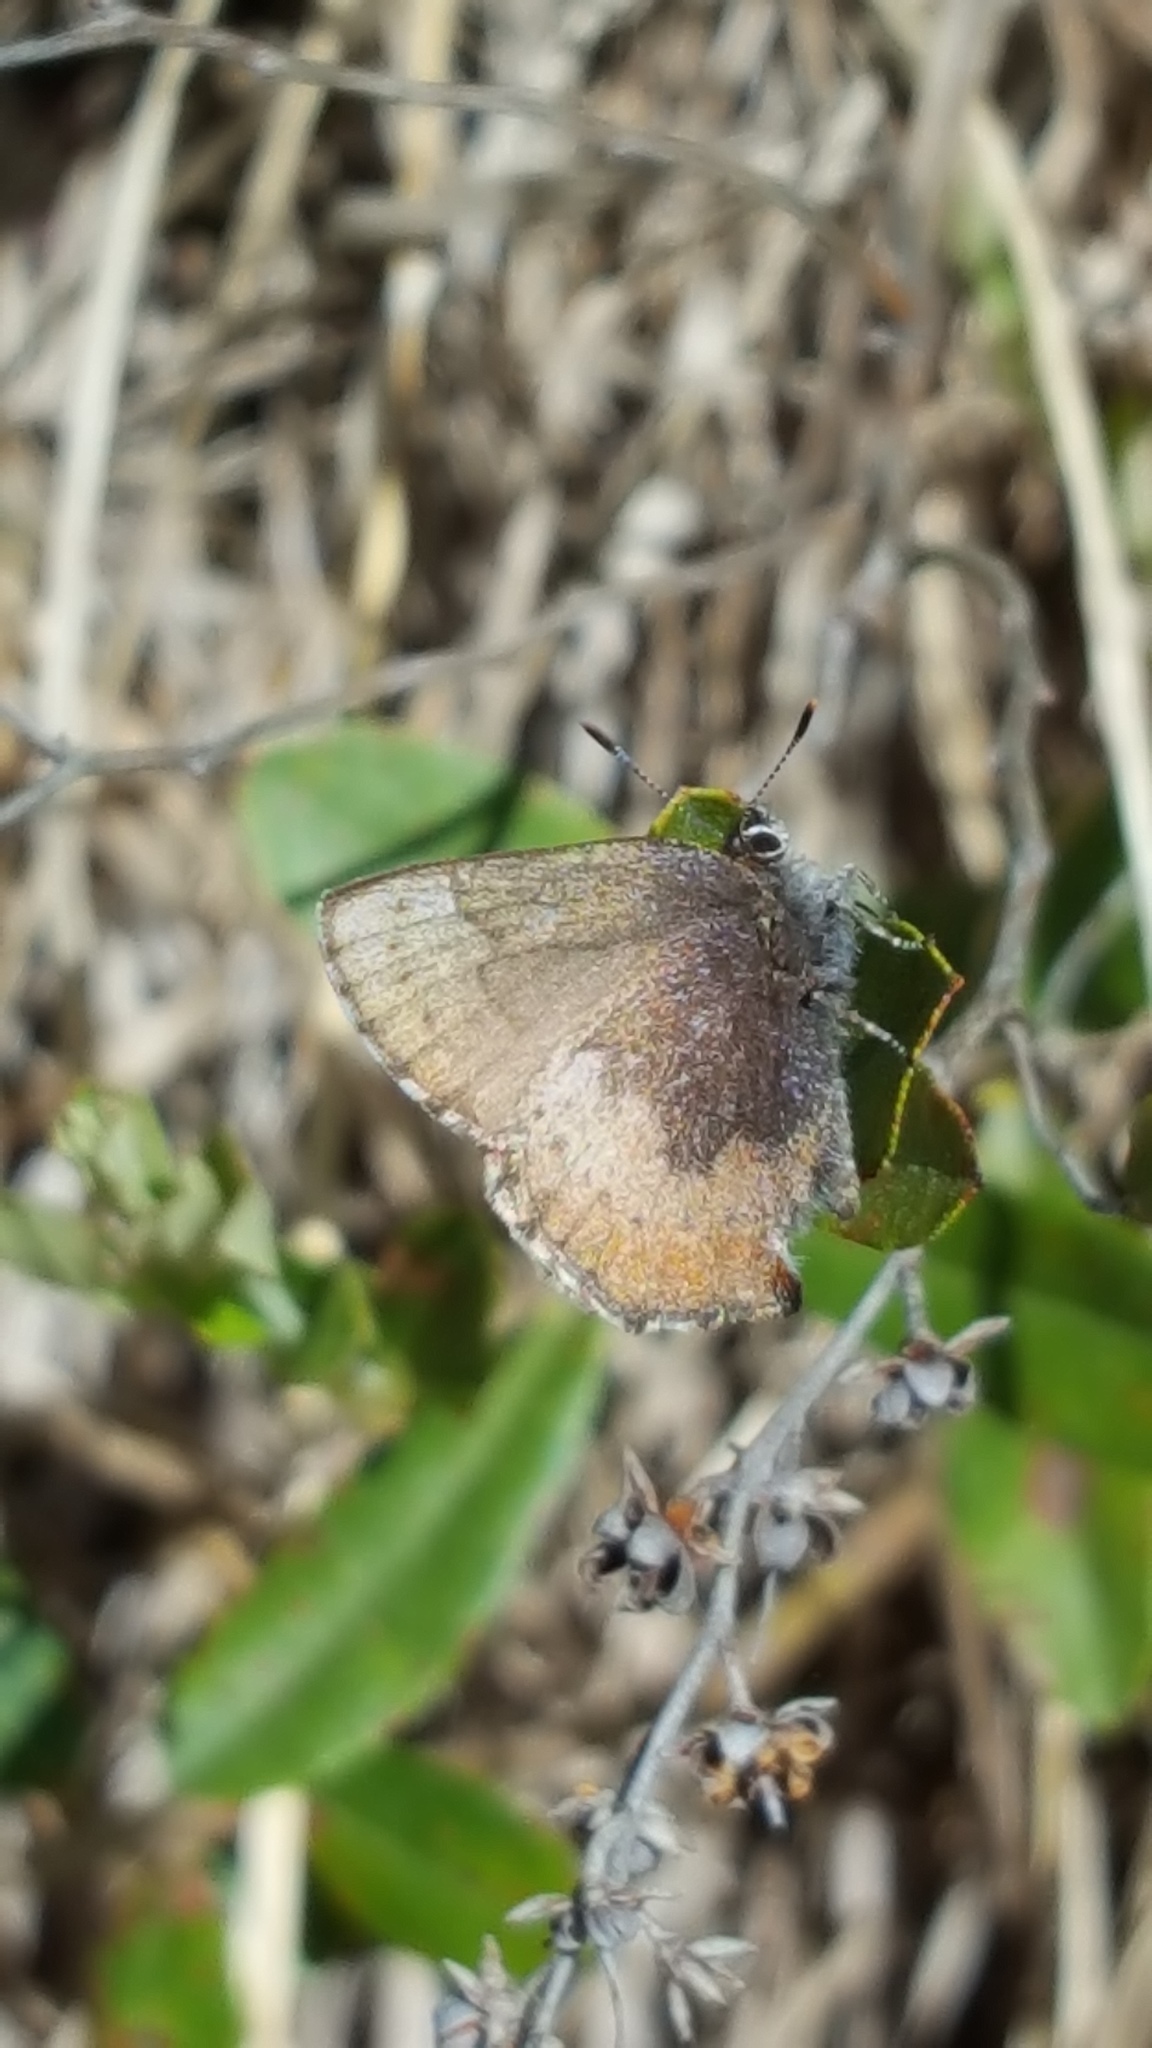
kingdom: Animalia
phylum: Arthropoda
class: Insecta
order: Lepidoptera
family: Lycaenidae
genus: Incisalia
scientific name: Incisalia irioides
